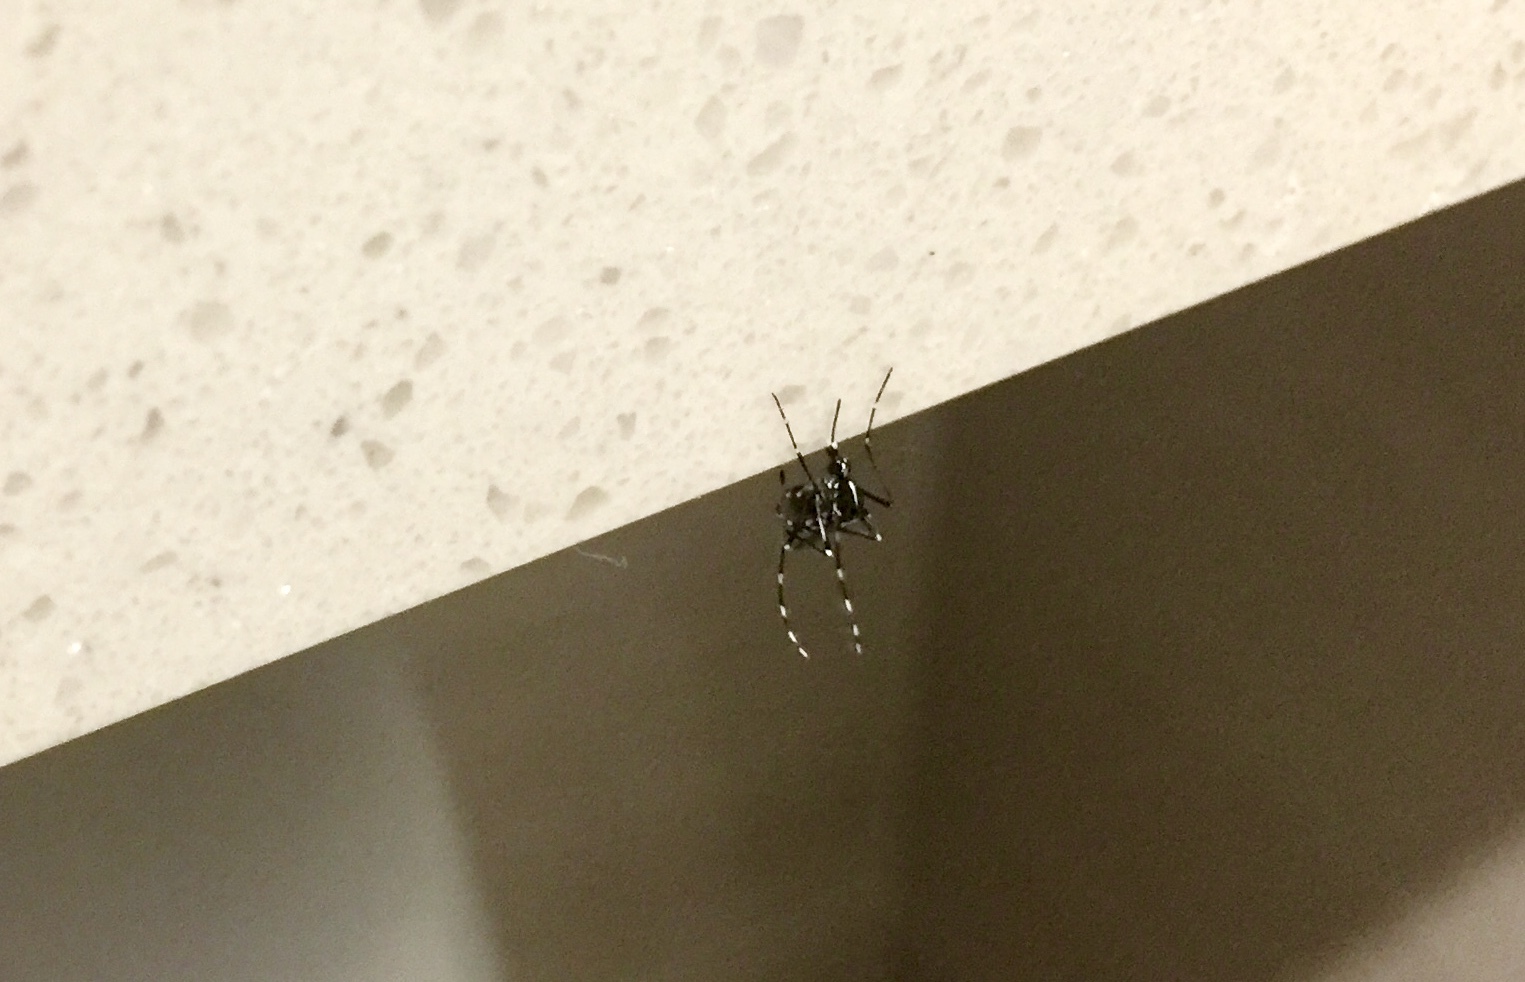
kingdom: Animalia
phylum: Arthropoda
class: Insecta
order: Diptera
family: Culicidae
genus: Aedes
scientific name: Aedes albopictus
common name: Tiger mosquito
